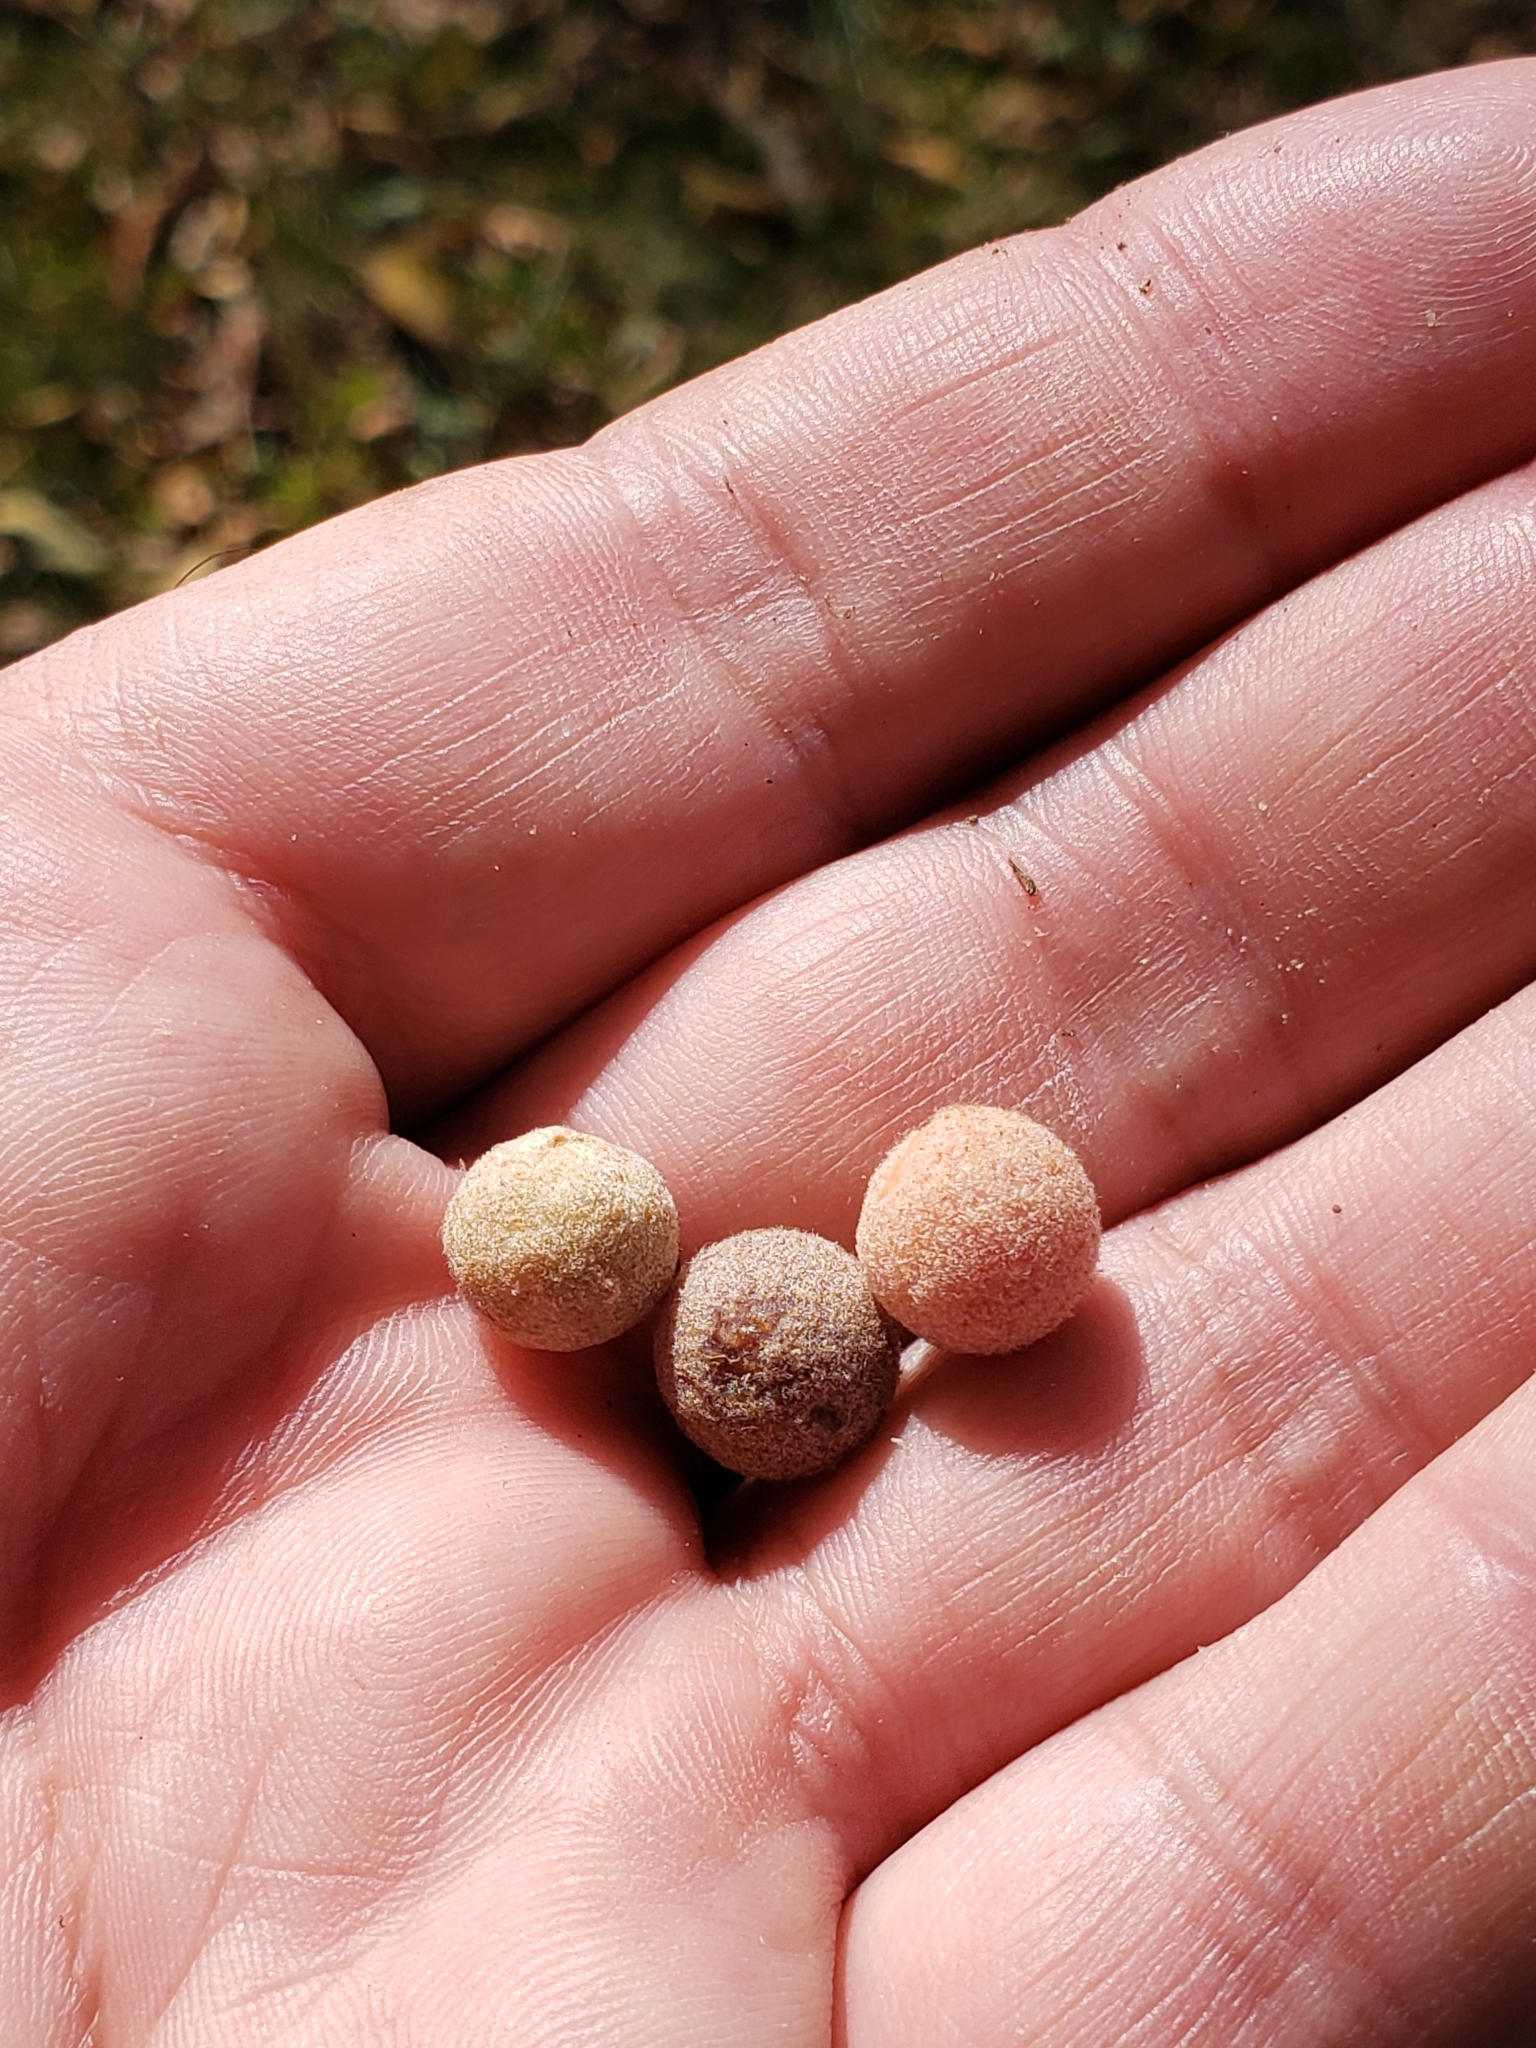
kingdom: Animalia
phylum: Arthropoda
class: Insecta
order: Hymenoptera
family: Cynipidae
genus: Philonix
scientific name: Philonix fulvicollis
